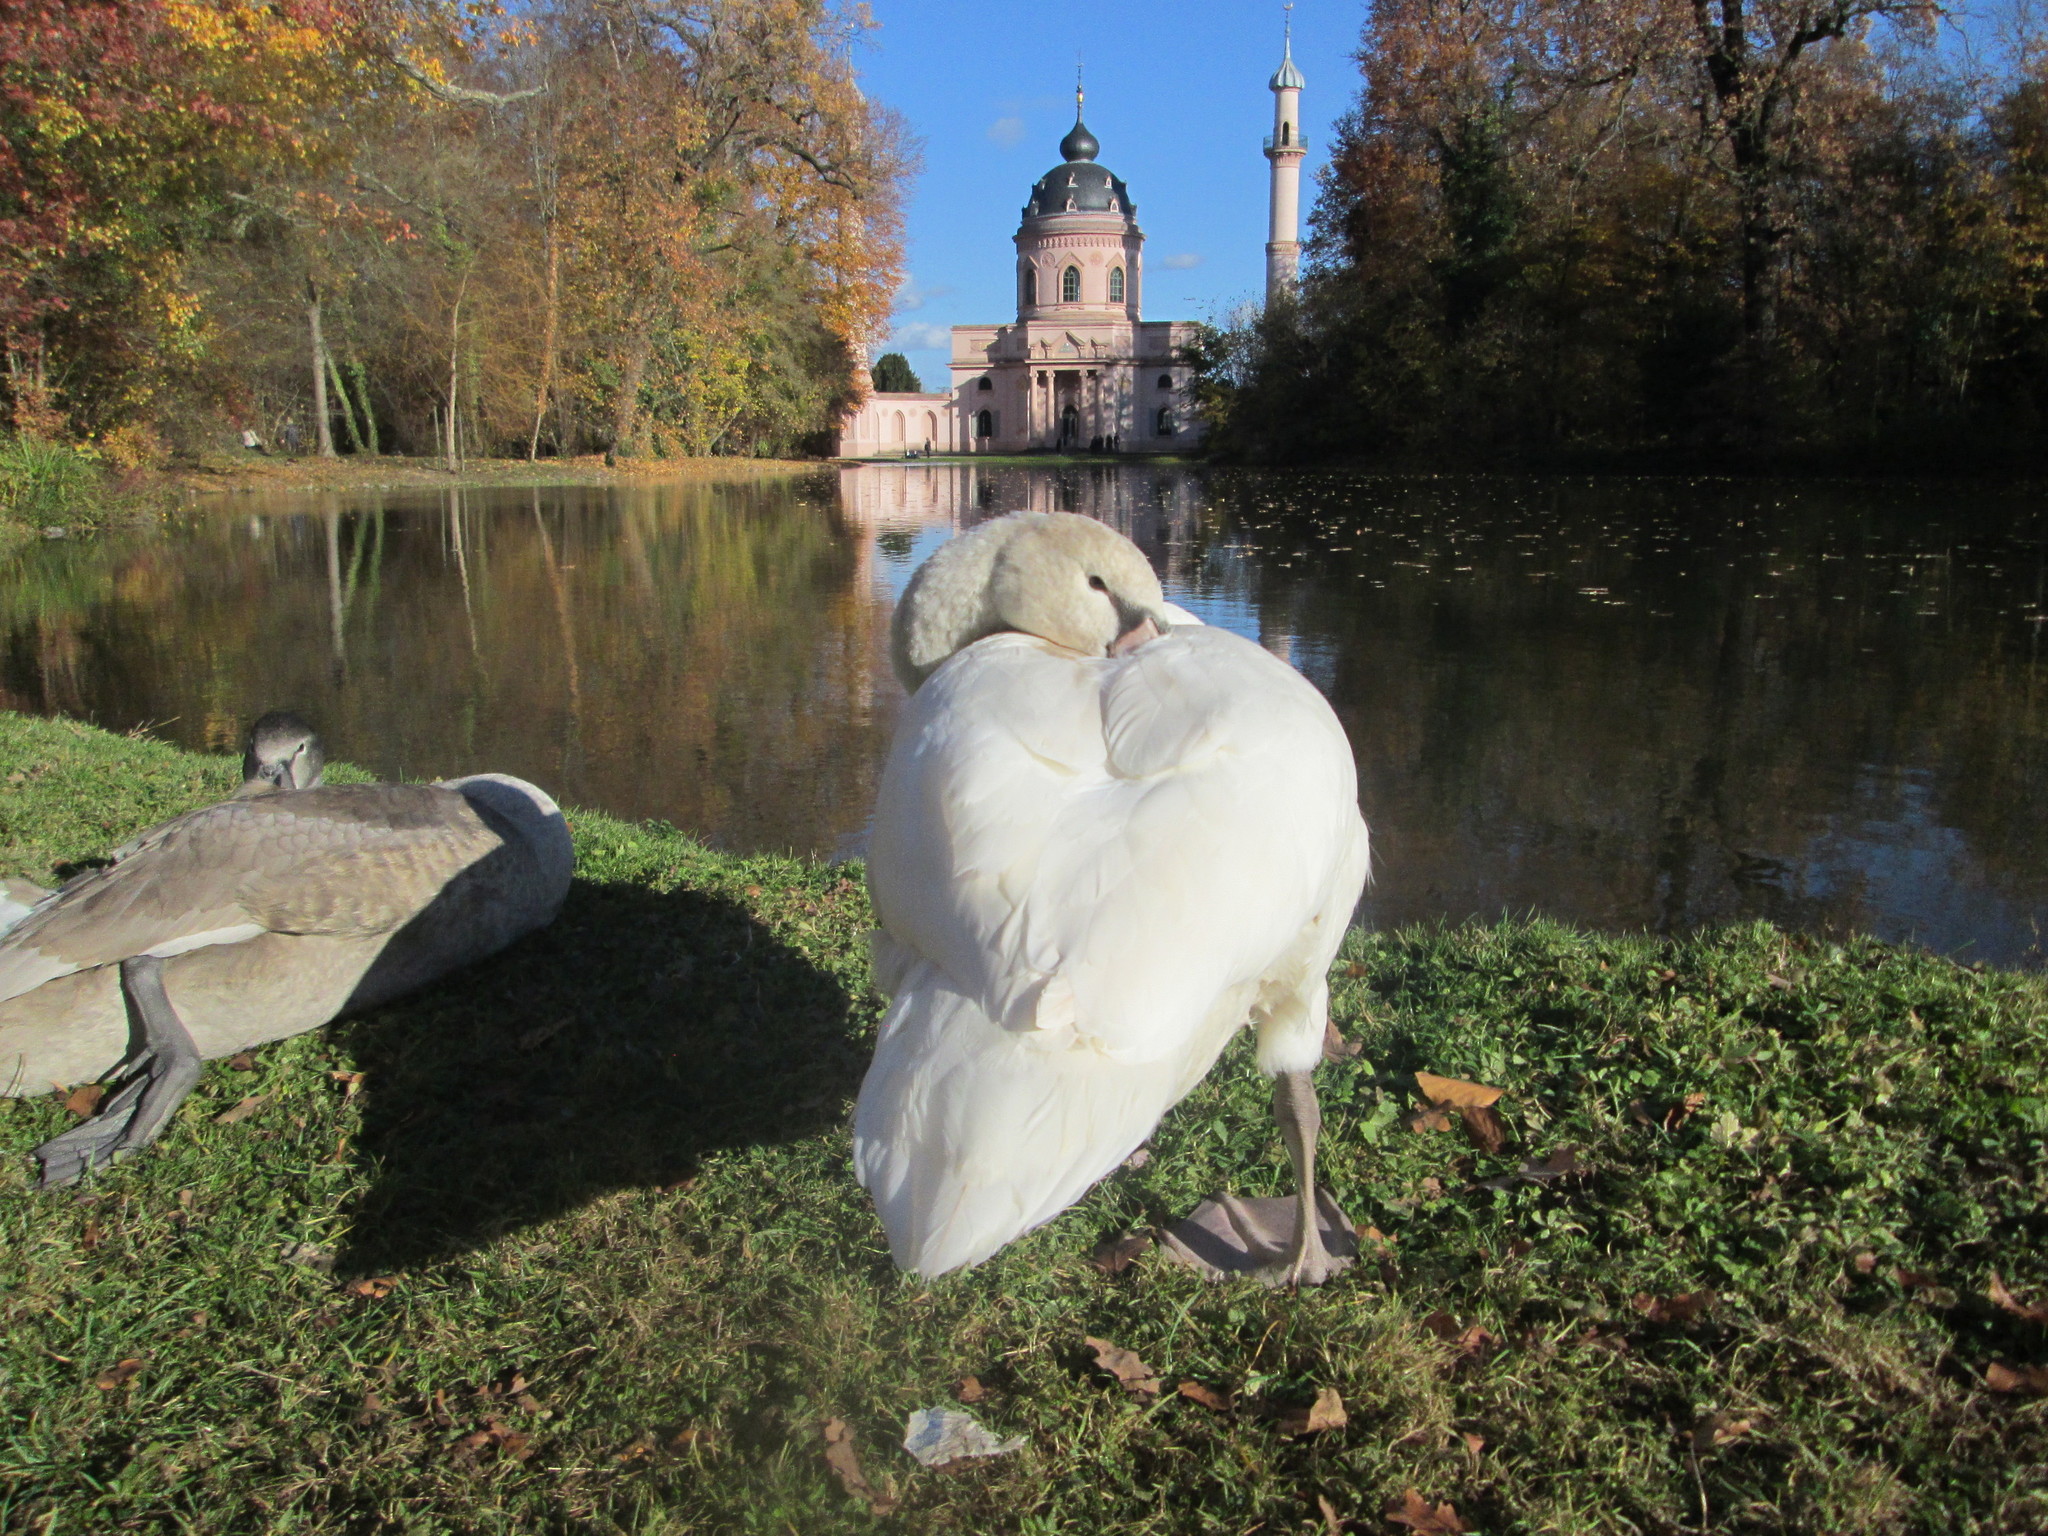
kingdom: Animalia
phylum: Chordata
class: Aves
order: Anseriformes
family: Anatidae
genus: Cygnus
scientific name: Cygnus olor
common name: Mute swan
